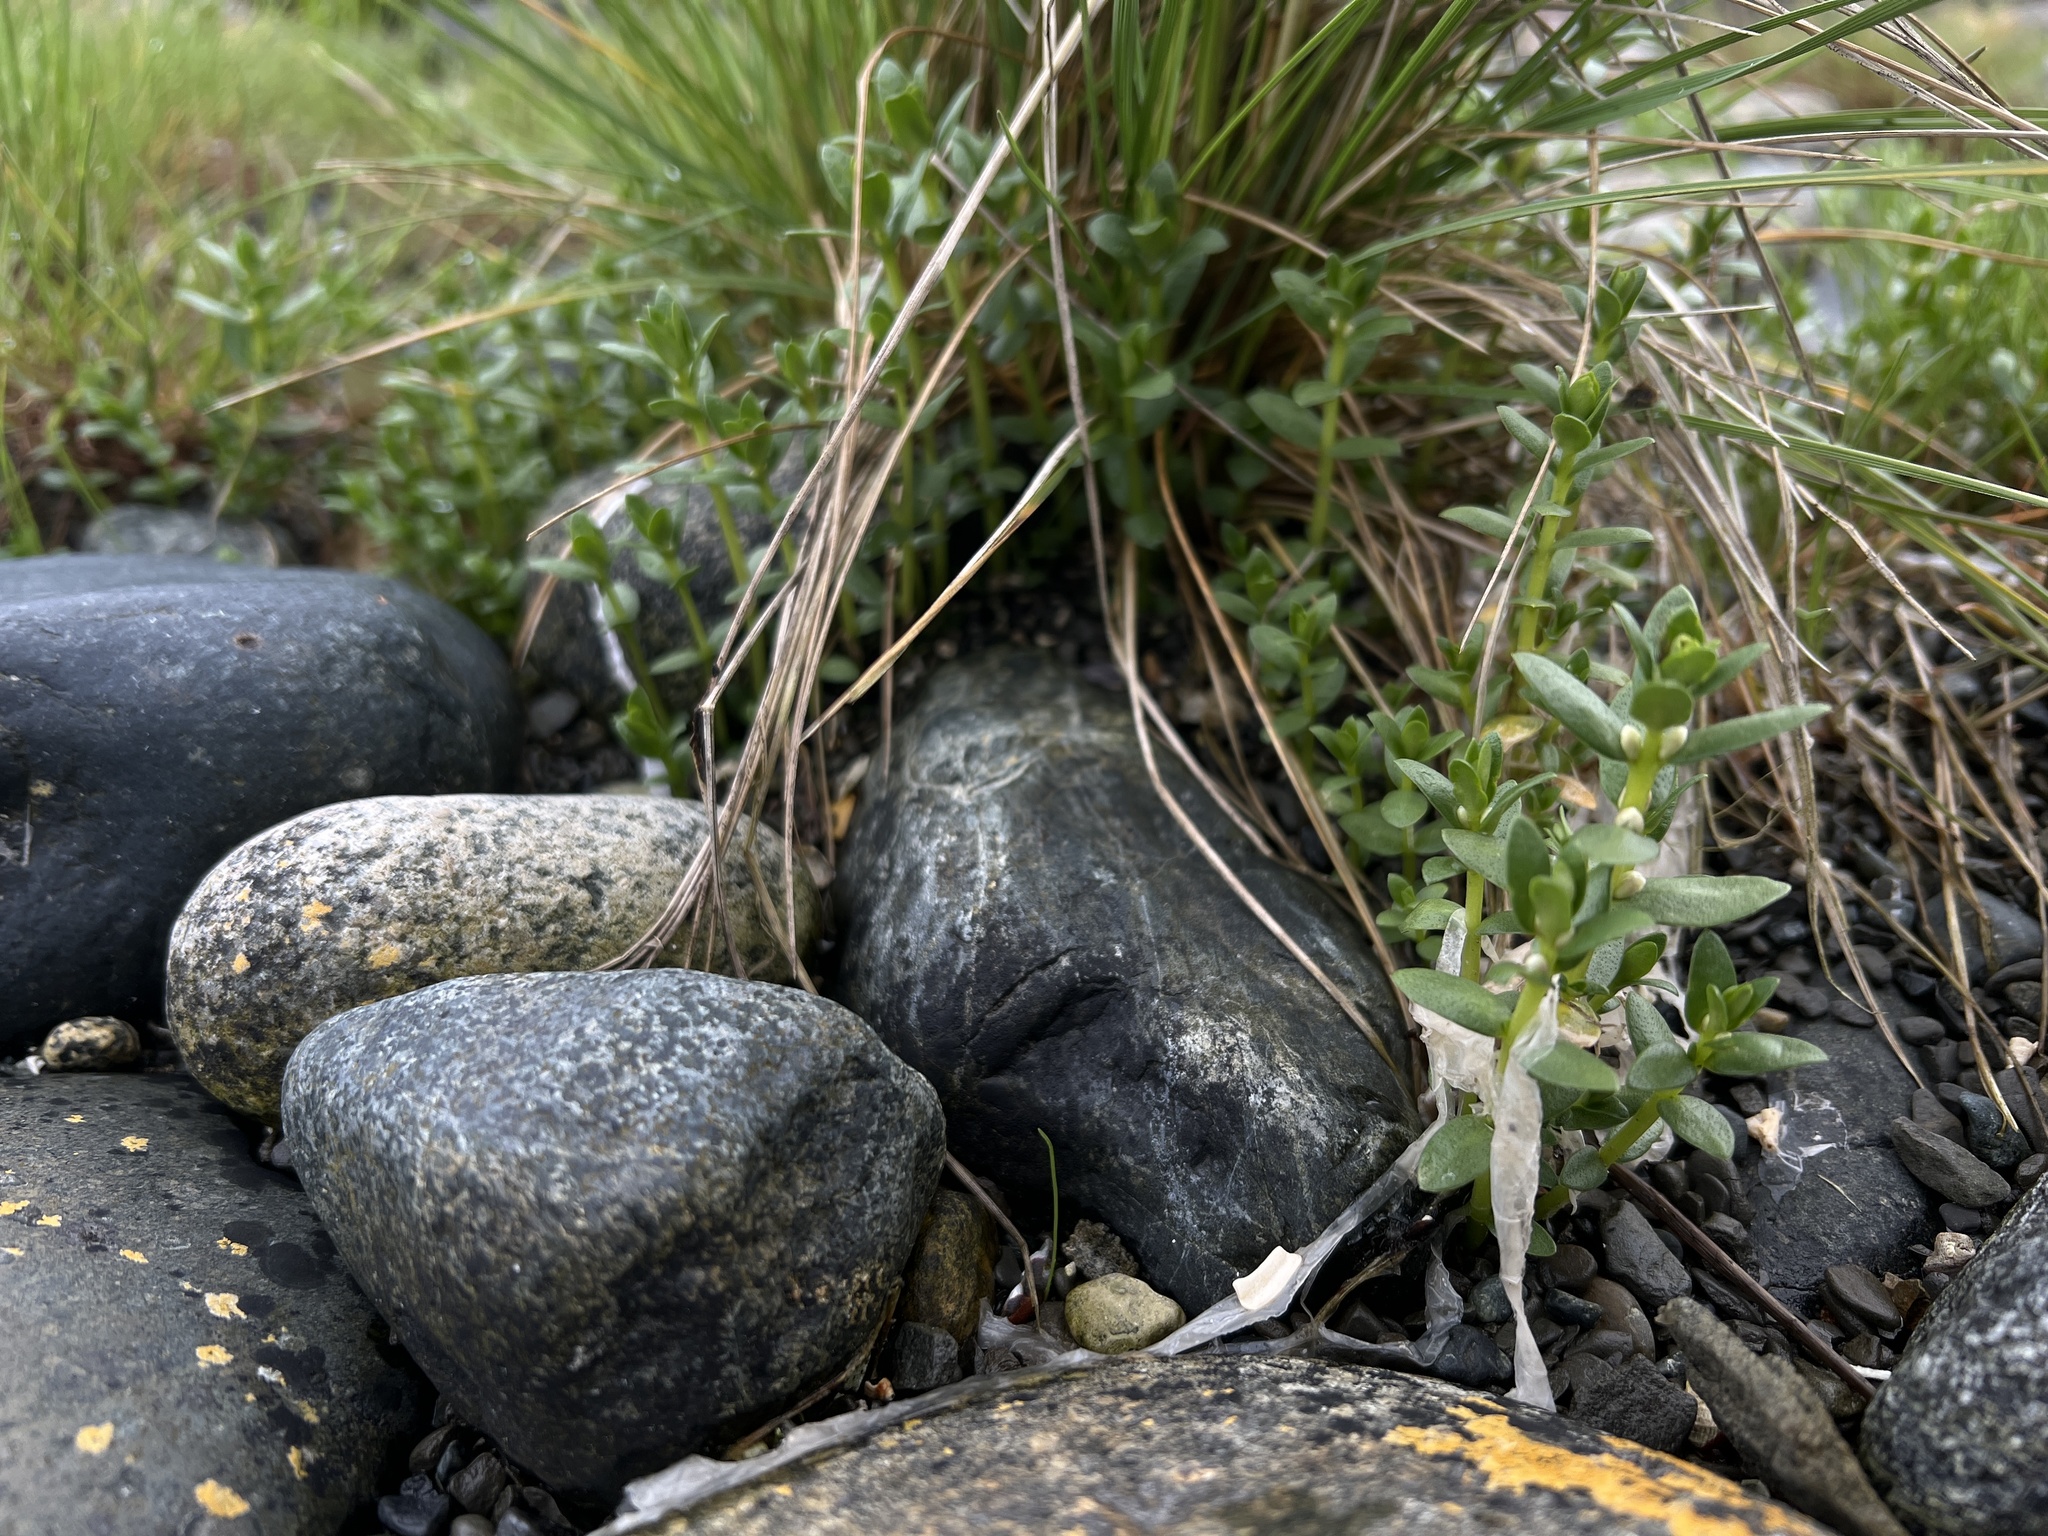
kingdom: Plantae
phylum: Tracheophyta
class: Magnoliopsida
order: Ericales
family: Primulaceae
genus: Lysimachia
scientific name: Lysimachia maritima
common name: Sea milkwort
